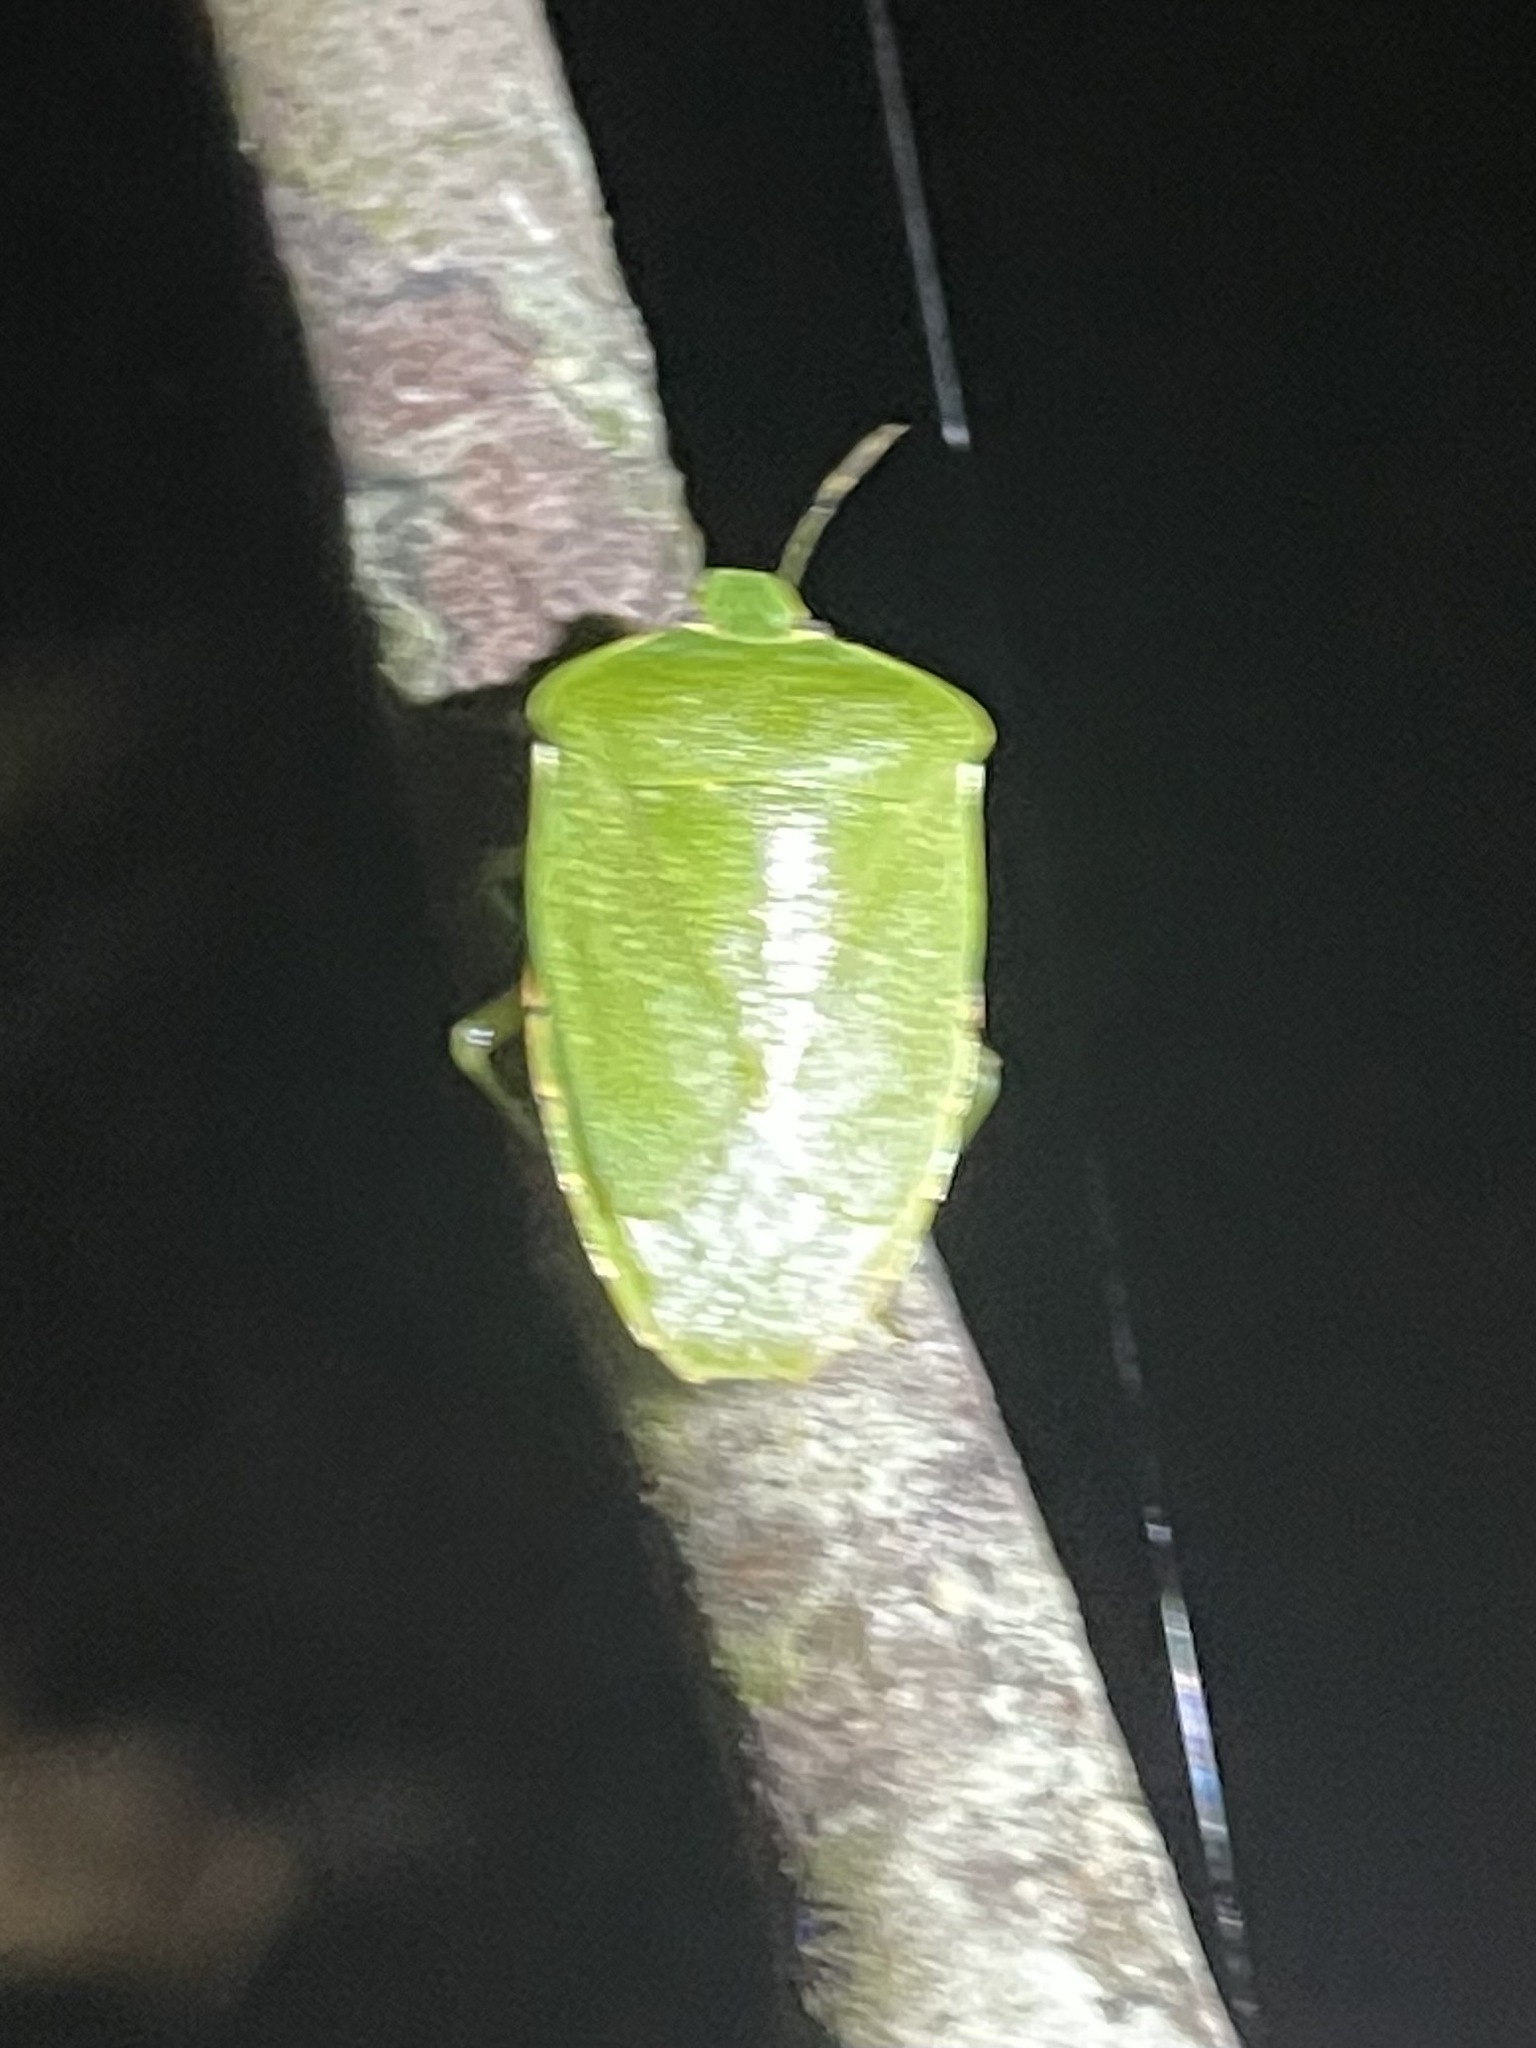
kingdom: Animalia
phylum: Arthropoda
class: Insecta
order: Hemiptera
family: Pentatomidae
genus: Chinavia
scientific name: Chinavia hilaris
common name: Green stink bug
